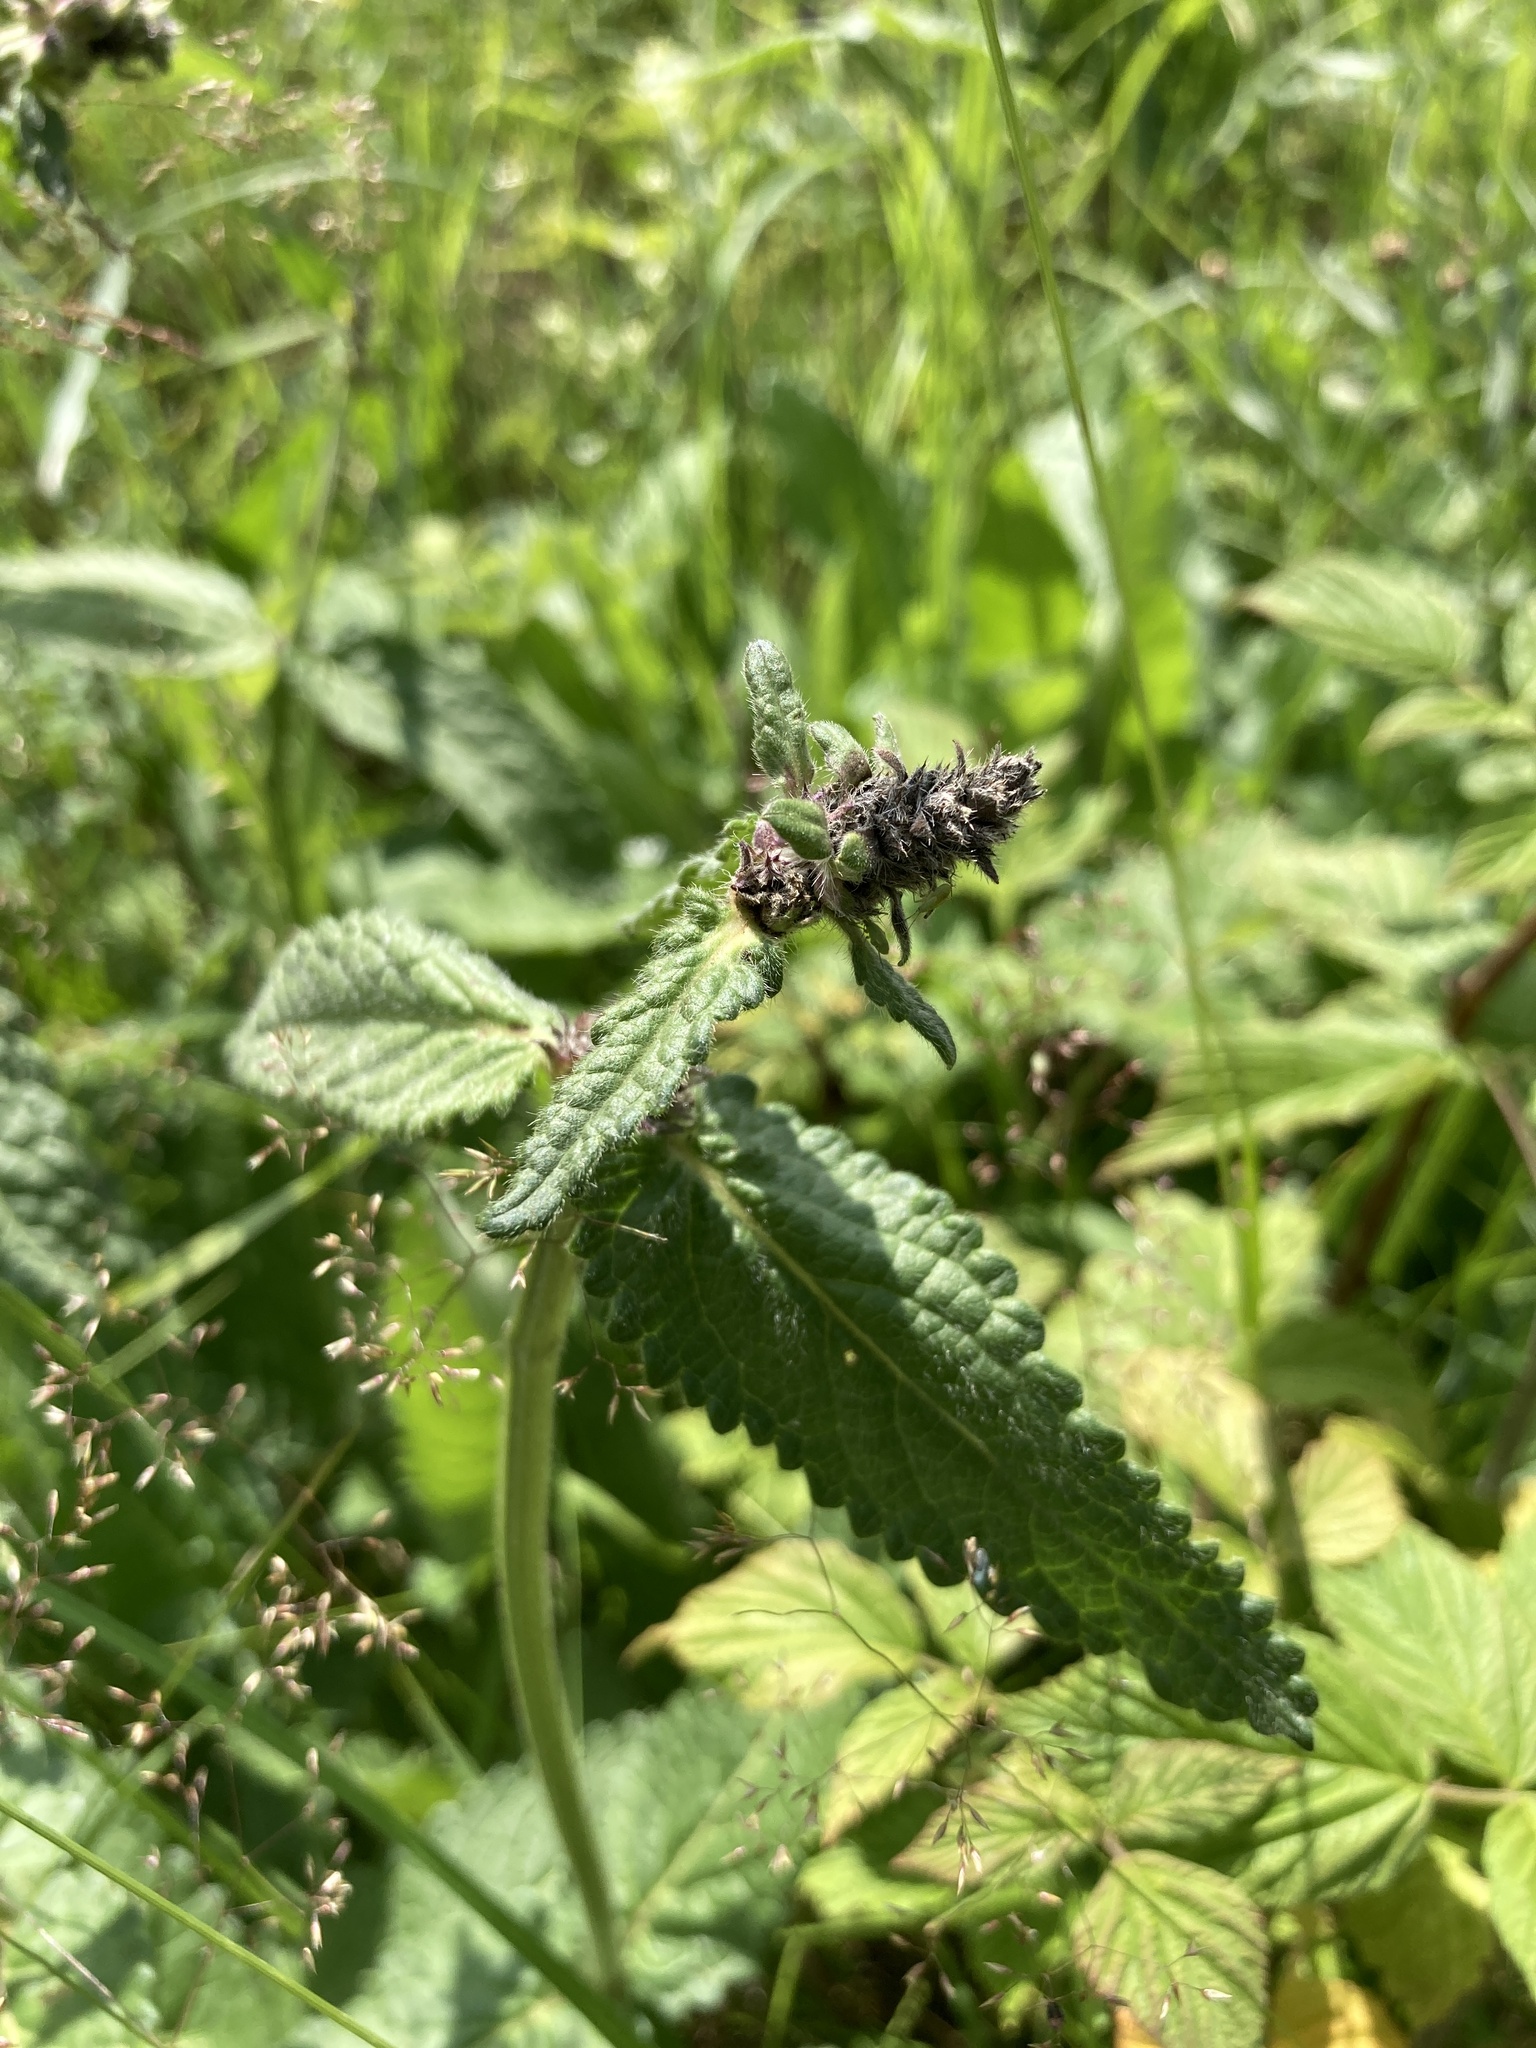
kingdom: Plantae
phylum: Tracheophyta
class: Magnoliopsida
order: Lamiales
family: Lamiaceae
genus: Betonica
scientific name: Betonica officinalis
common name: Bishop's-wort
